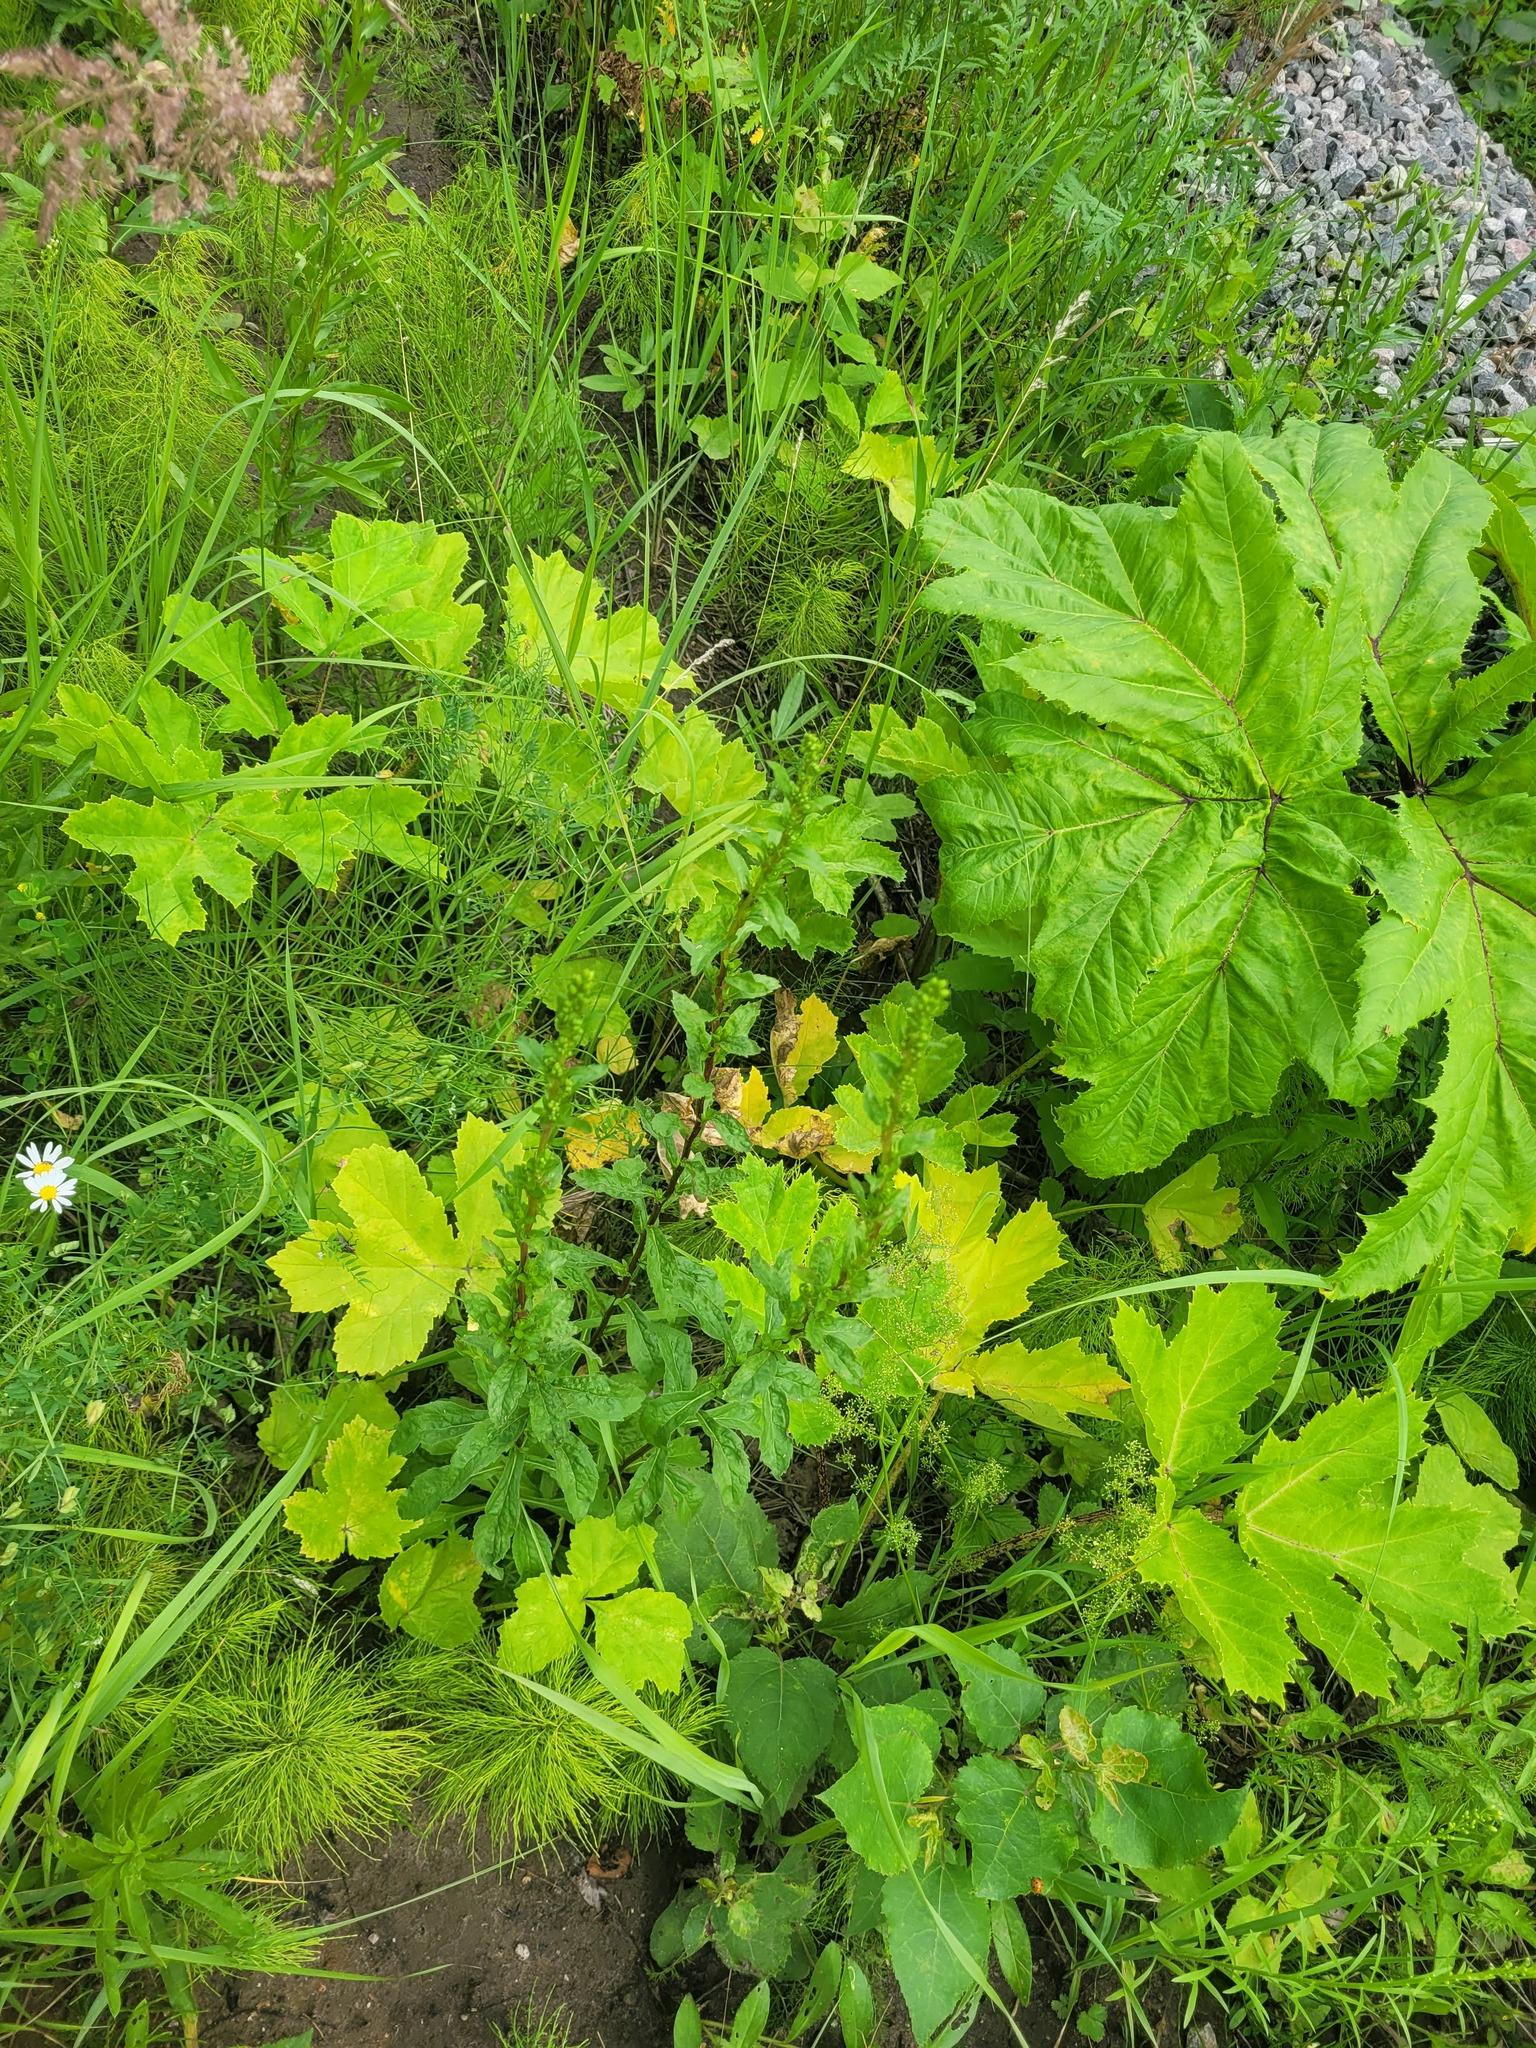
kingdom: Plantae
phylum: Tracheophyta
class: Magnoliopsida
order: Asterales
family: Asteraceae
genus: Solidago
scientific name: Solidago virgaurea
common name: Goldenrod
